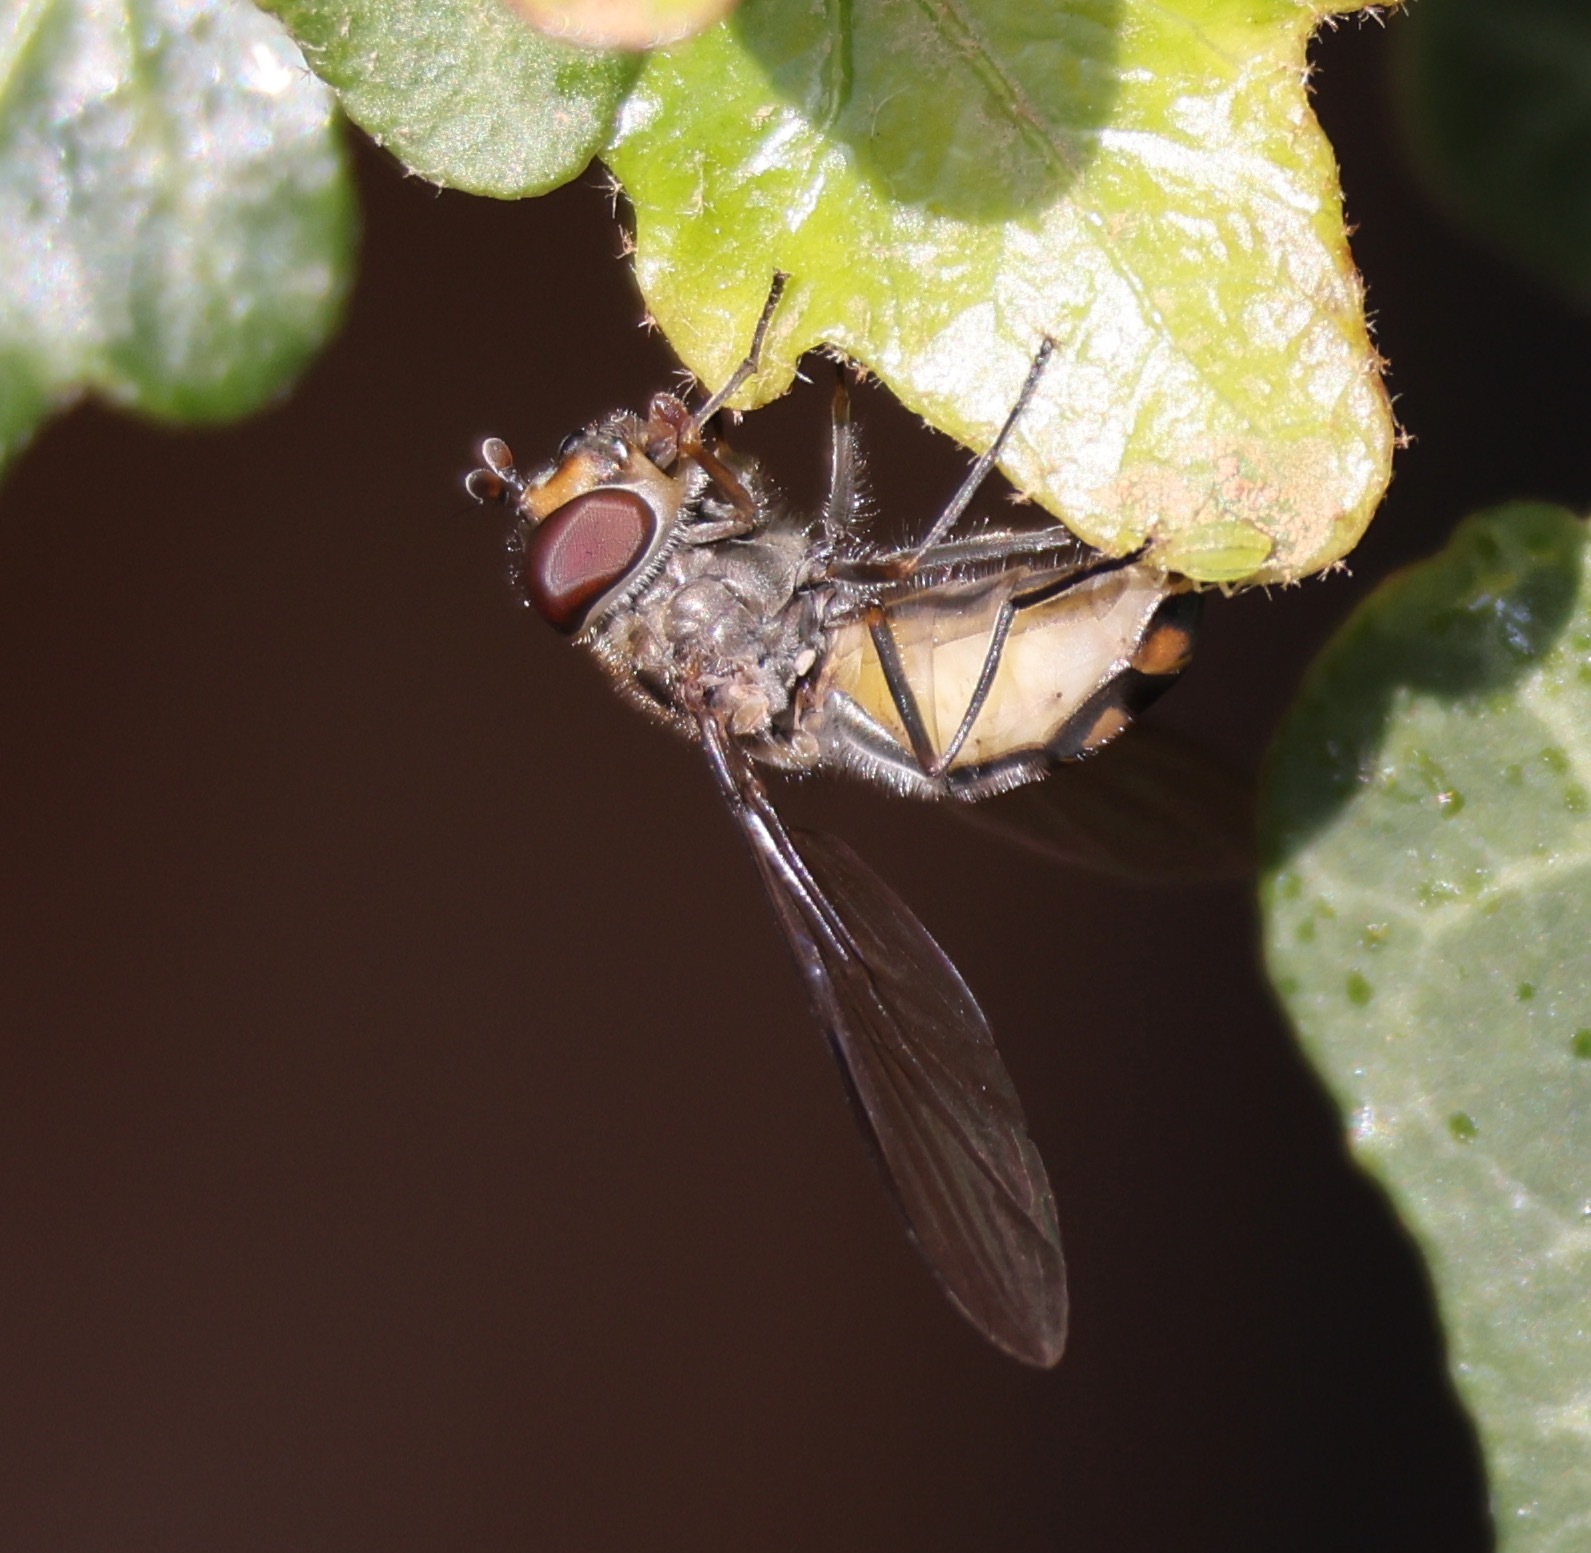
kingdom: Animalia
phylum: Arthropoda
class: Insecta
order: Diptera
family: Syrphidae
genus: Meliscaeva
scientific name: Meliscaeva auricollis
